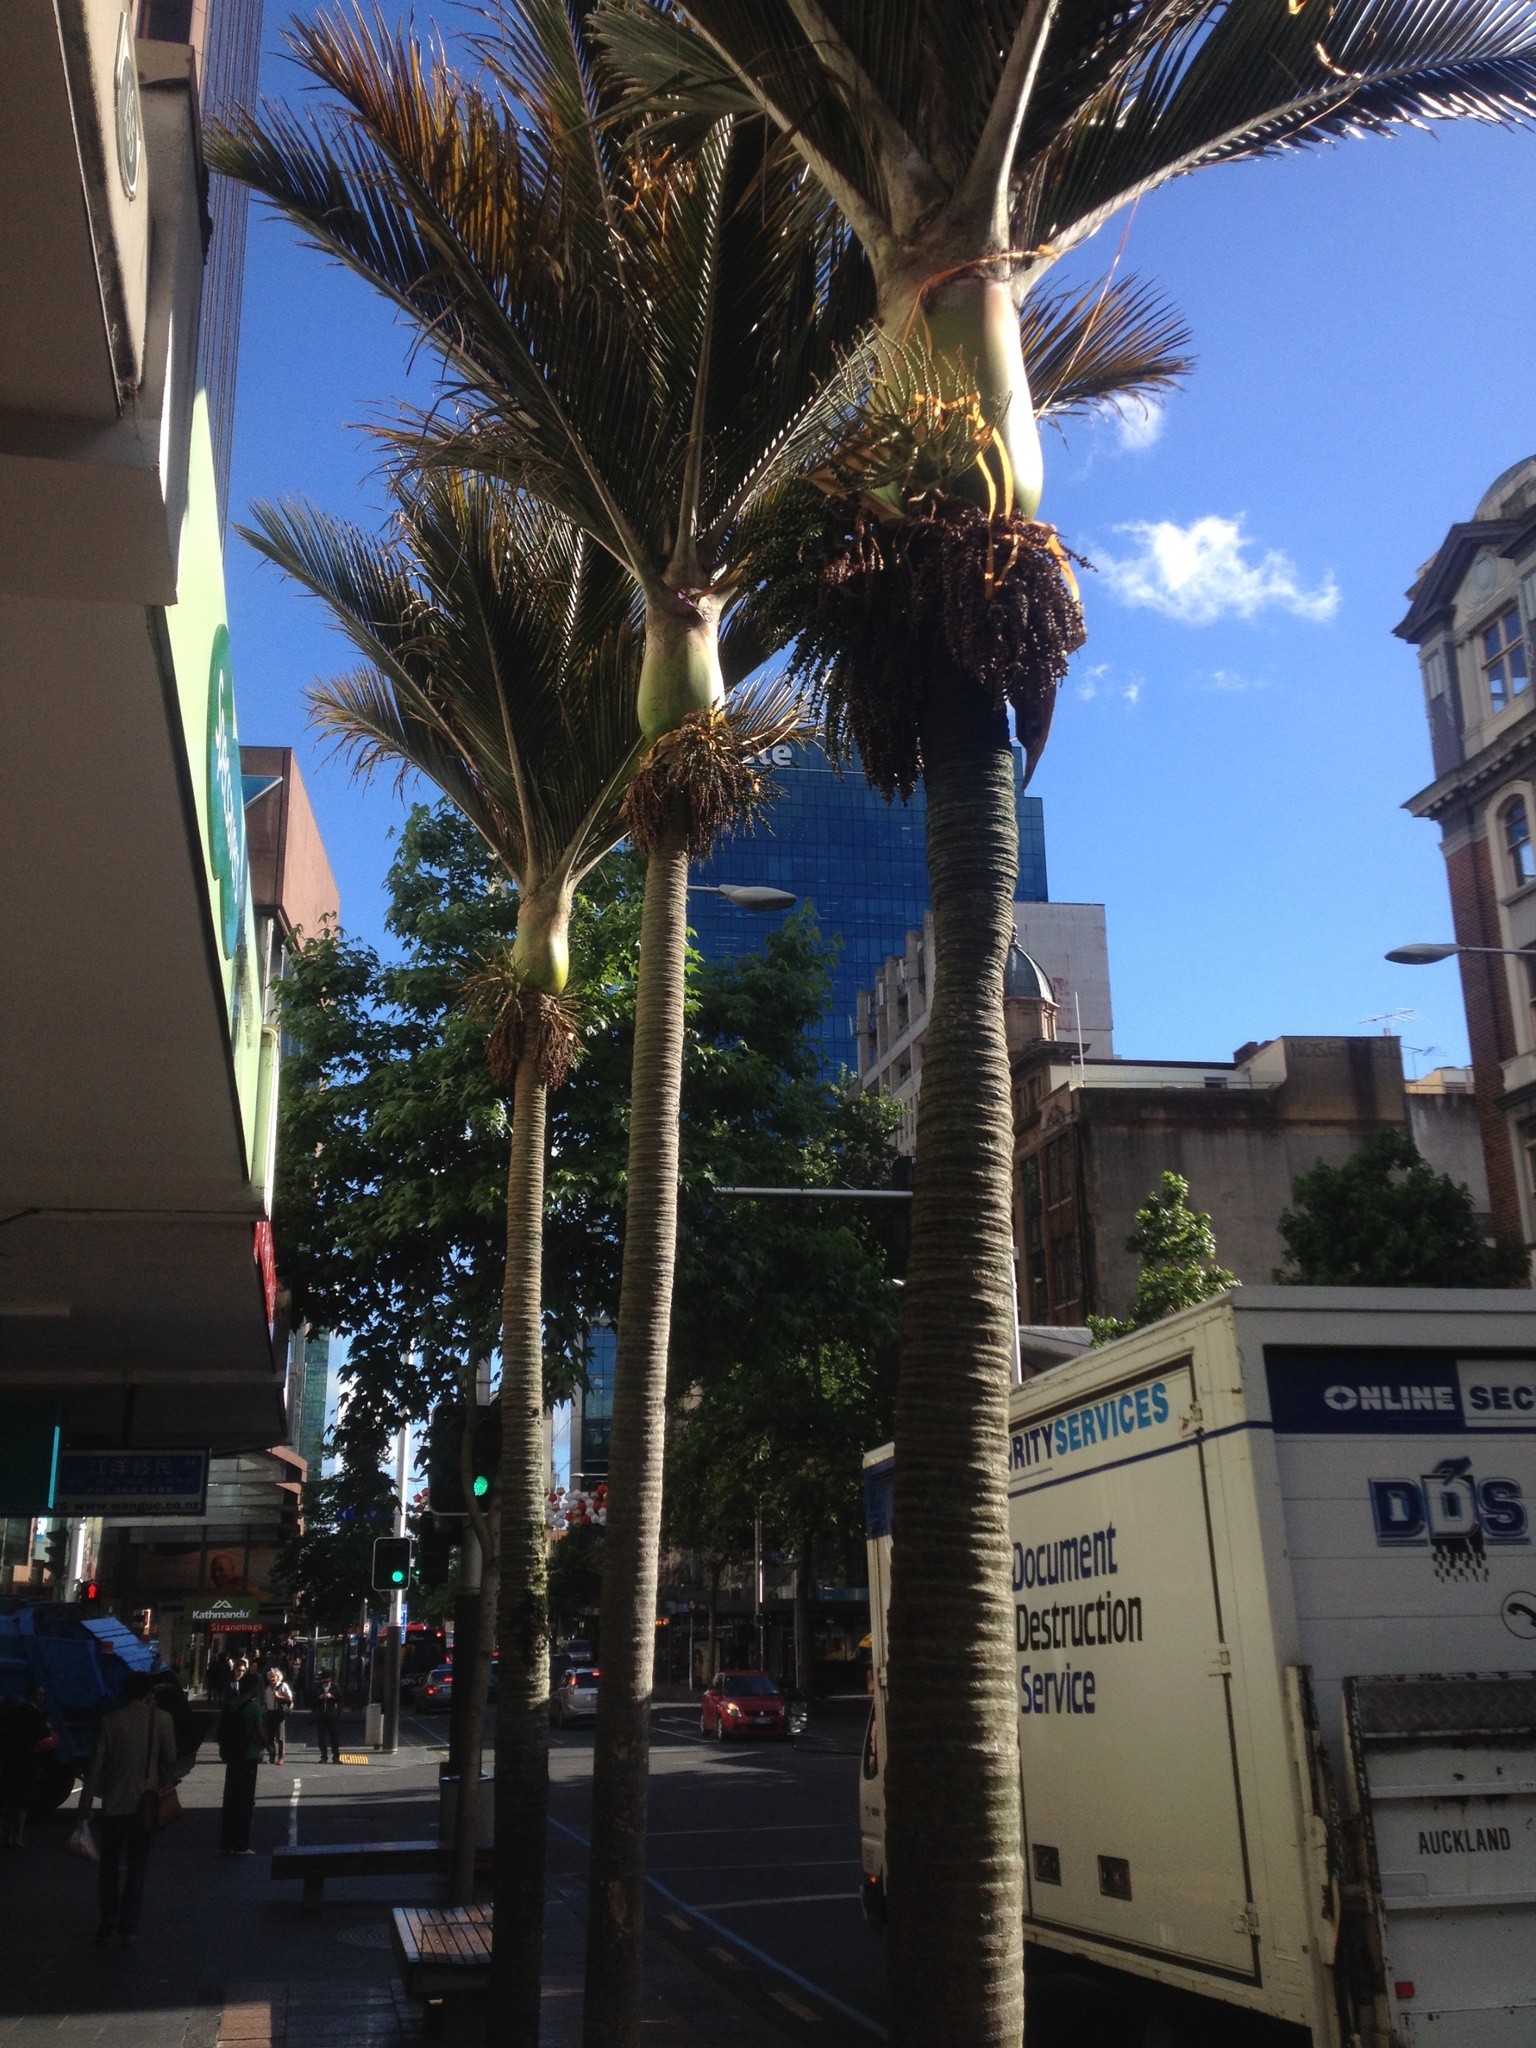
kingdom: Plantae
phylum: Tracheophyta
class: Liliopsida
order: Arecales
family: Arecaceae
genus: Rhopalostylis
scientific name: Rhopalostylis sapida
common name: Feather-duster palm
